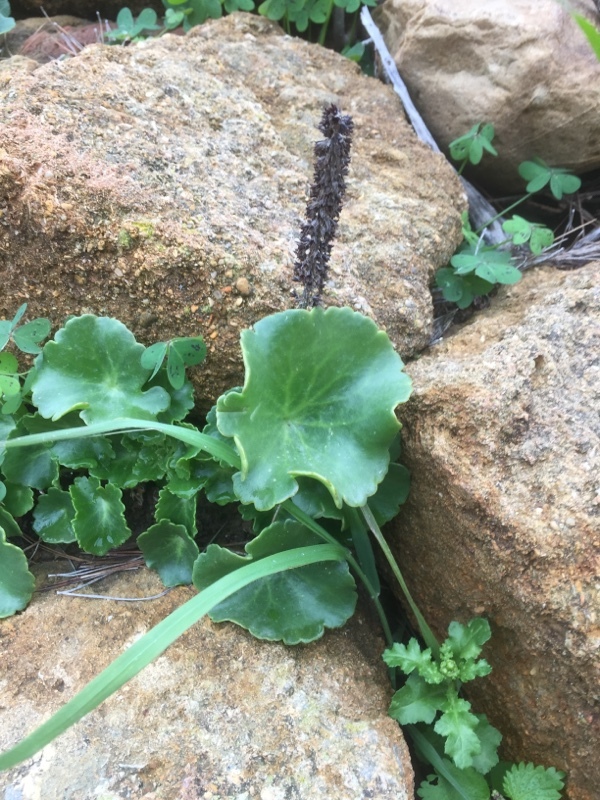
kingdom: Plantae
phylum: Tracheophyta
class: Magnoliopsida
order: Saxifragales
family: Crassulaceae
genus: Umbilicus
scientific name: Umbilicus rupestris
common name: Navelwort
